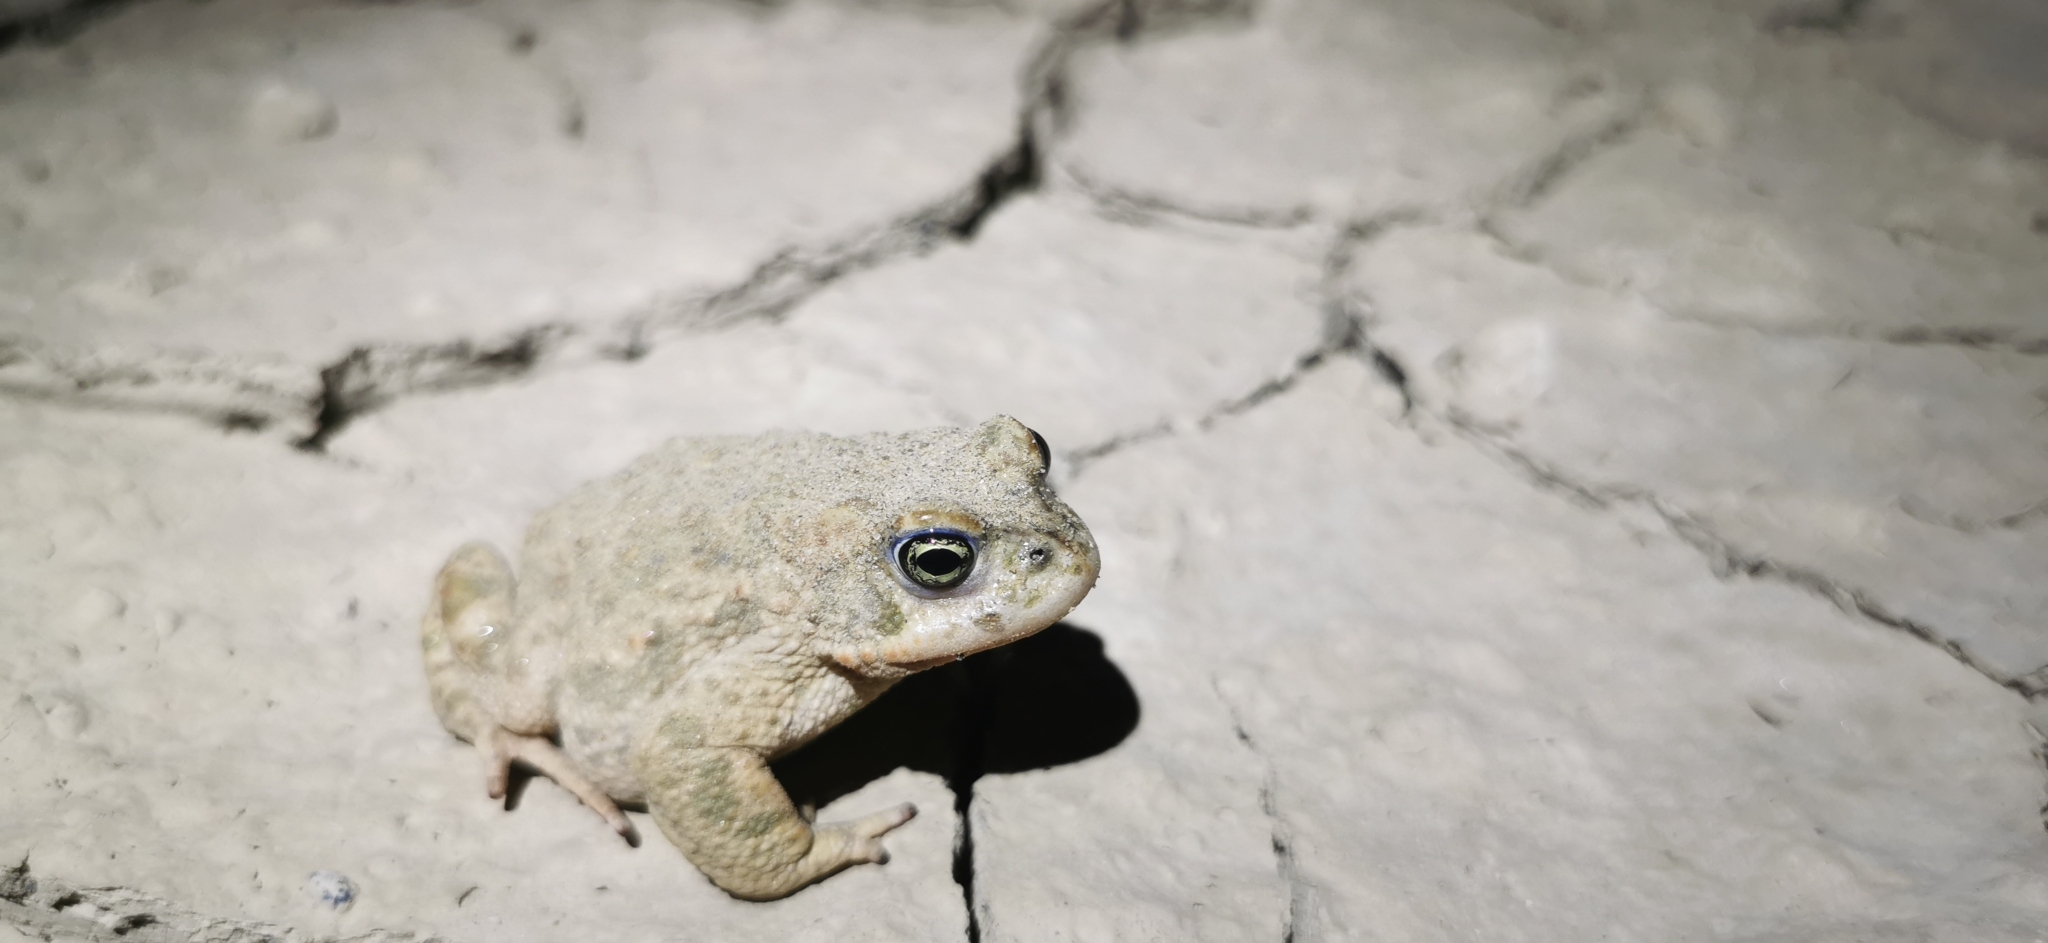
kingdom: Animalia
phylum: Chordata
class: Amphibia
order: Anura
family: Bufonidae
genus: Epidalea
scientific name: Epidalea calamita
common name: Natterjack toad
